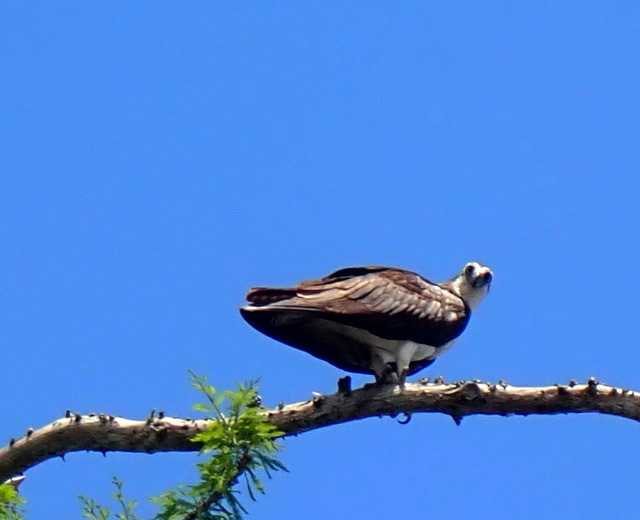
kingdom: Animalia
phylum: Chordata
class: Aves
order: Accipitriformes
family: Pandionidae
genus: Pandion
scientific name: Pandion haliaetus
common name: Osprey
